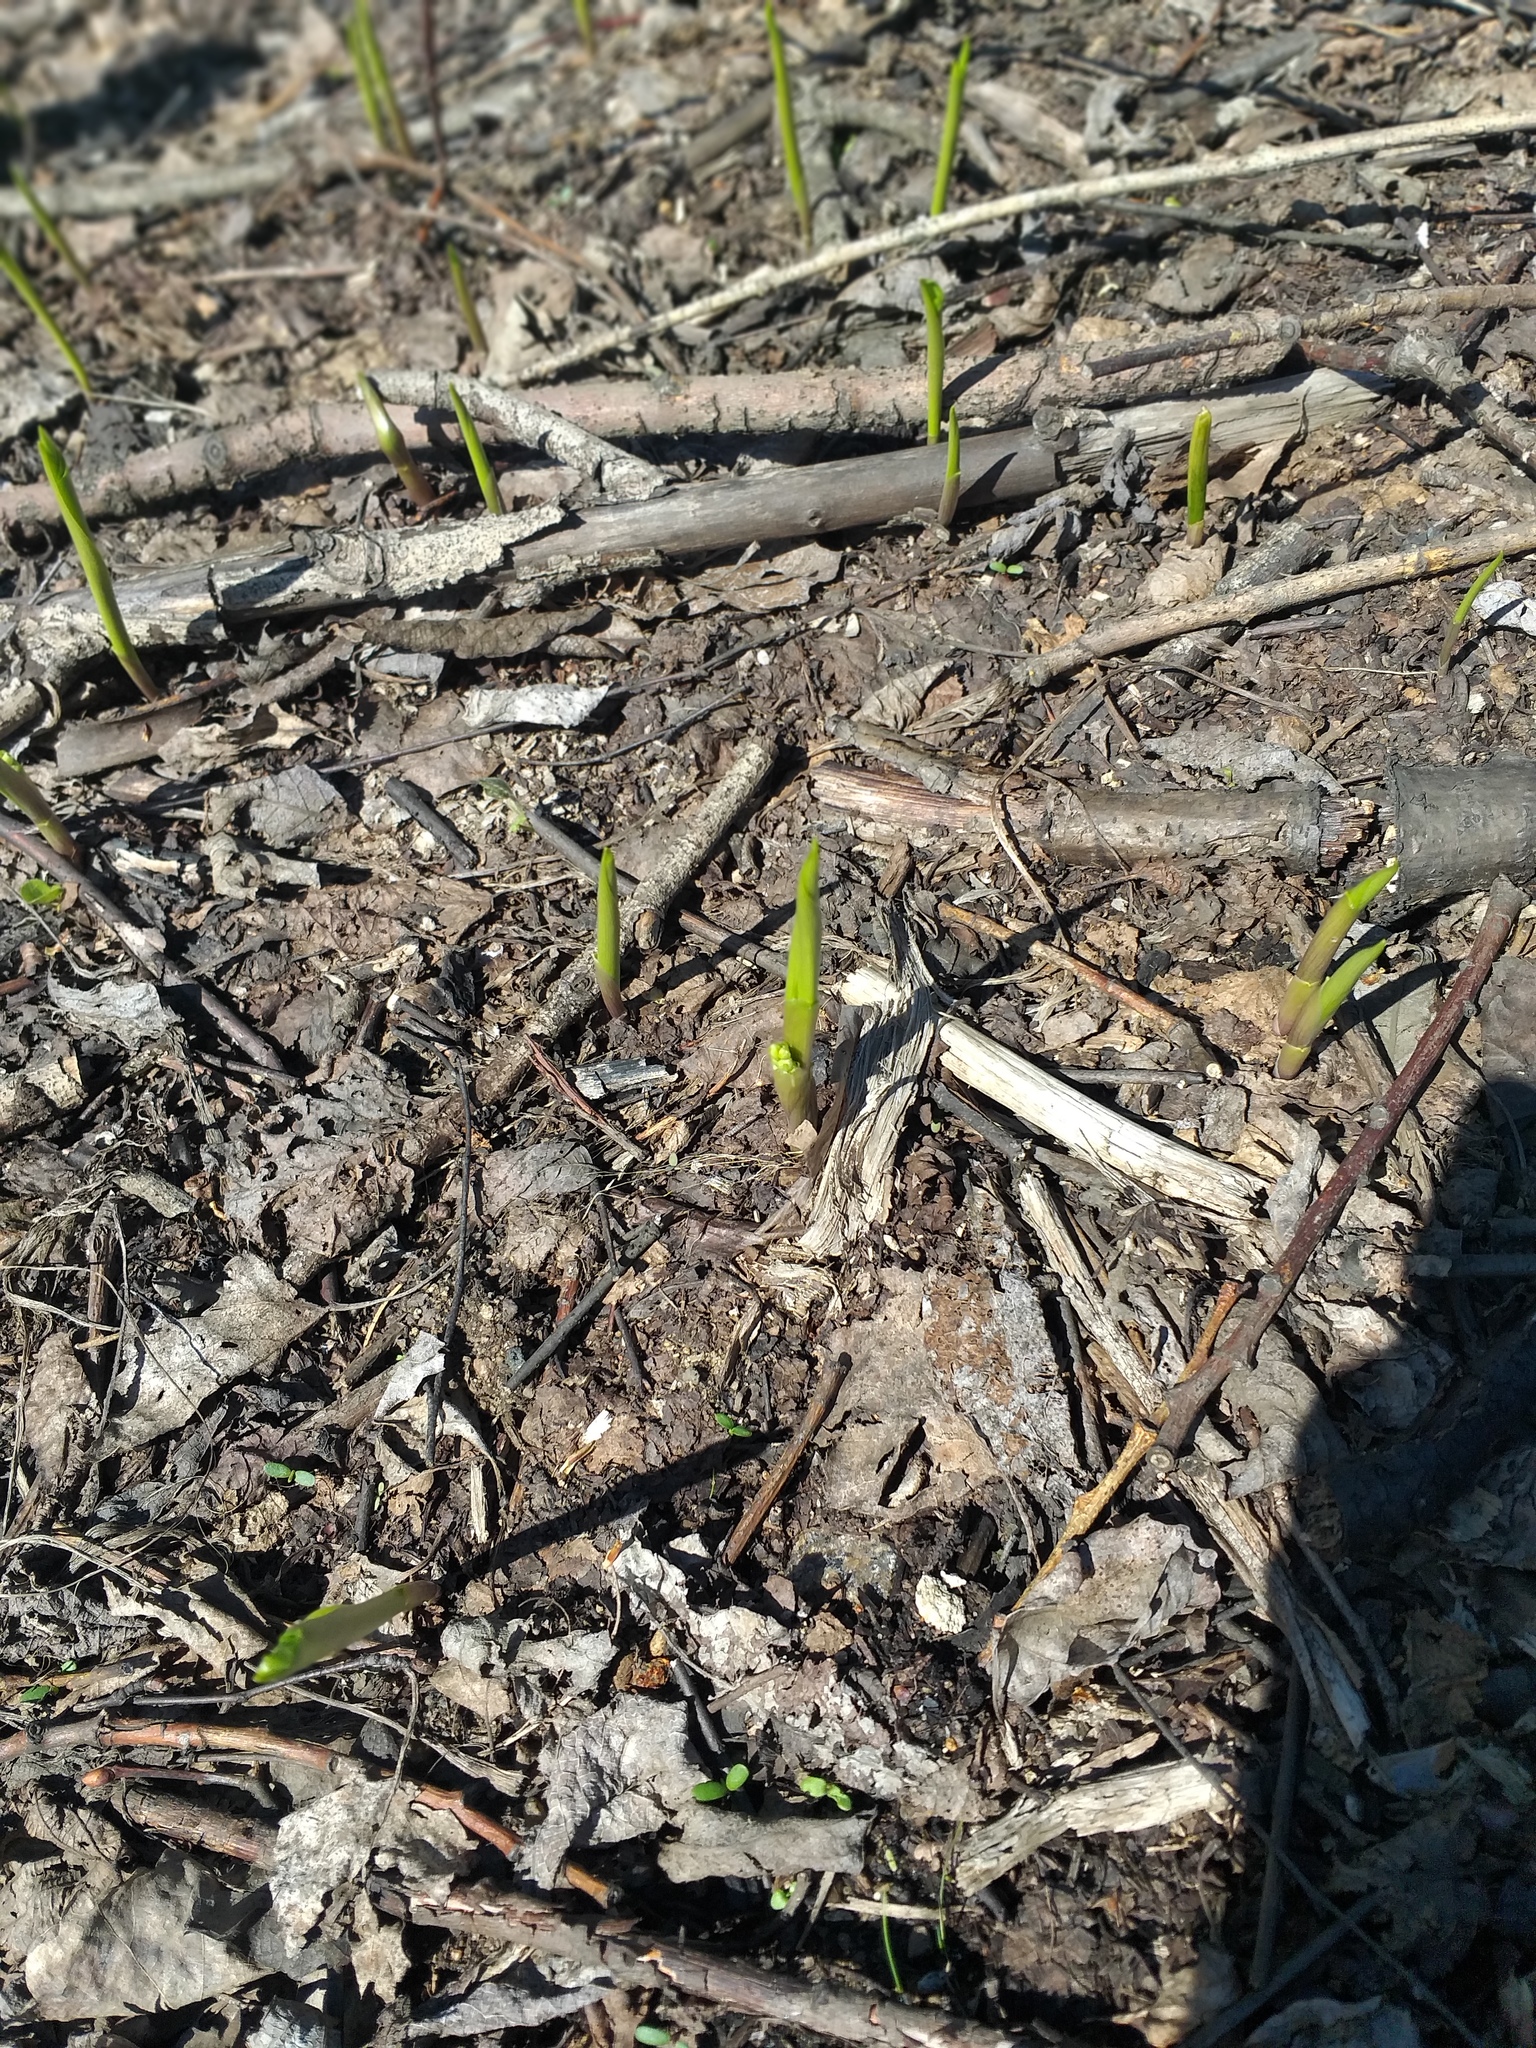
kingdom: Plantae
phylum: Tracheophyta
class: Liliopsida
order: Asparagales
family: Asparagaceae
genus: Convallaria
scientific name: Convallaria majalis
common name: Lily-of-the-valley
